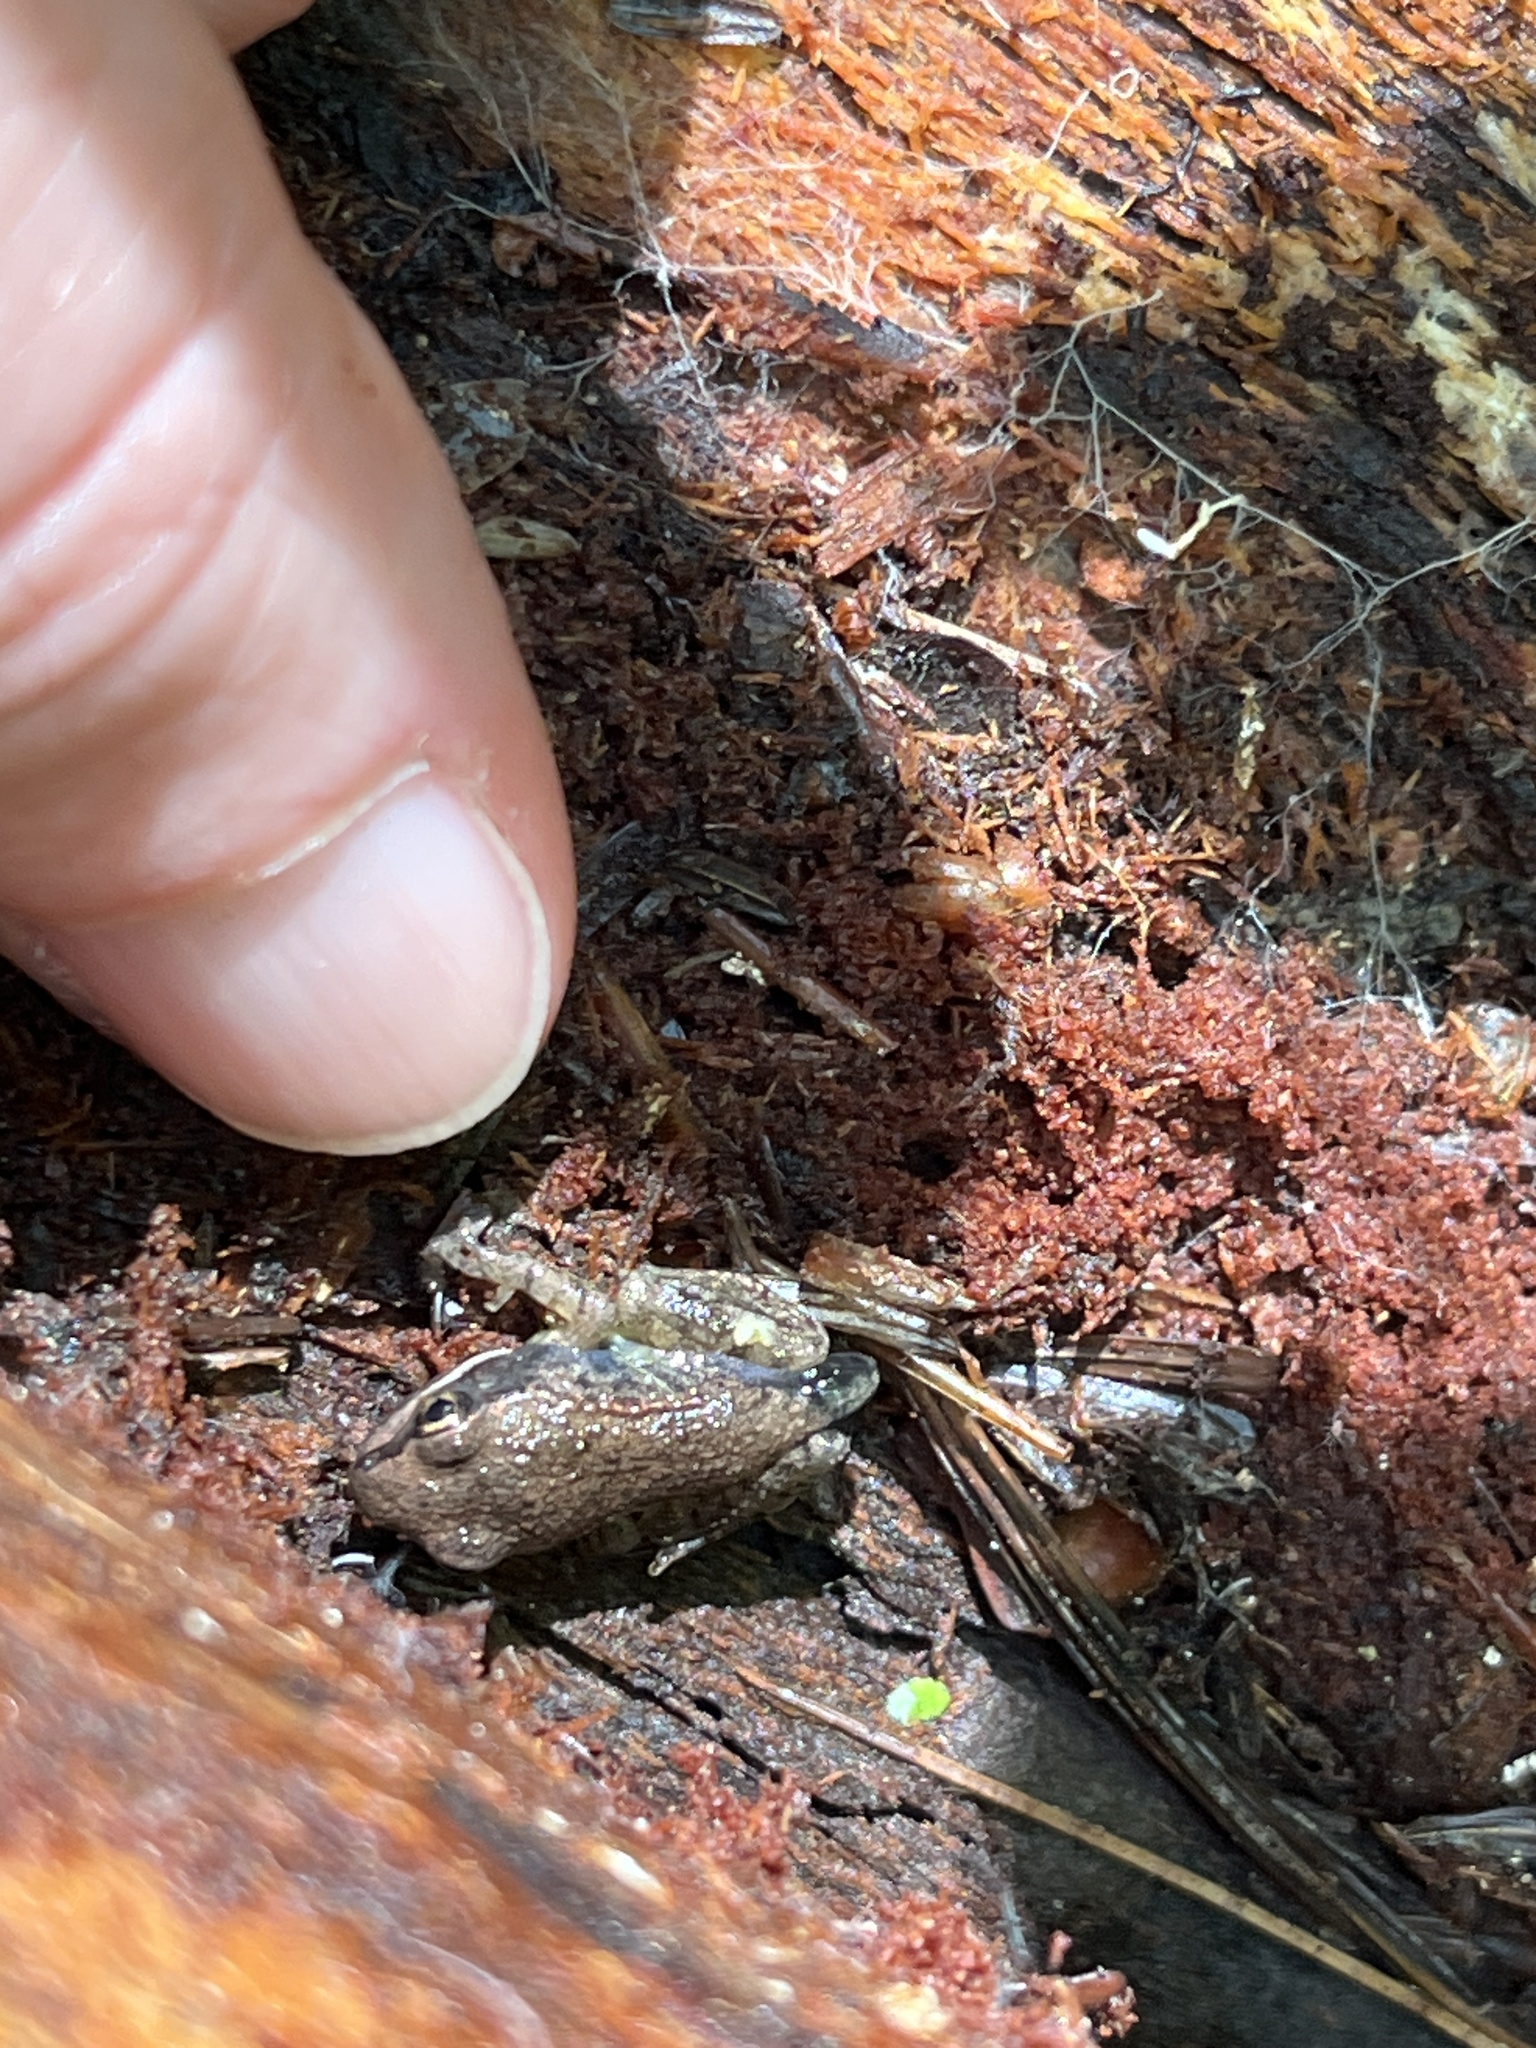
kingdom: Animalia
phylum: Chordata
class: Amphibia
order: Anura
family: Ranidae
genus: Lithobates
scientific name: Lithobates sylvaticus
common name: Wood frog
